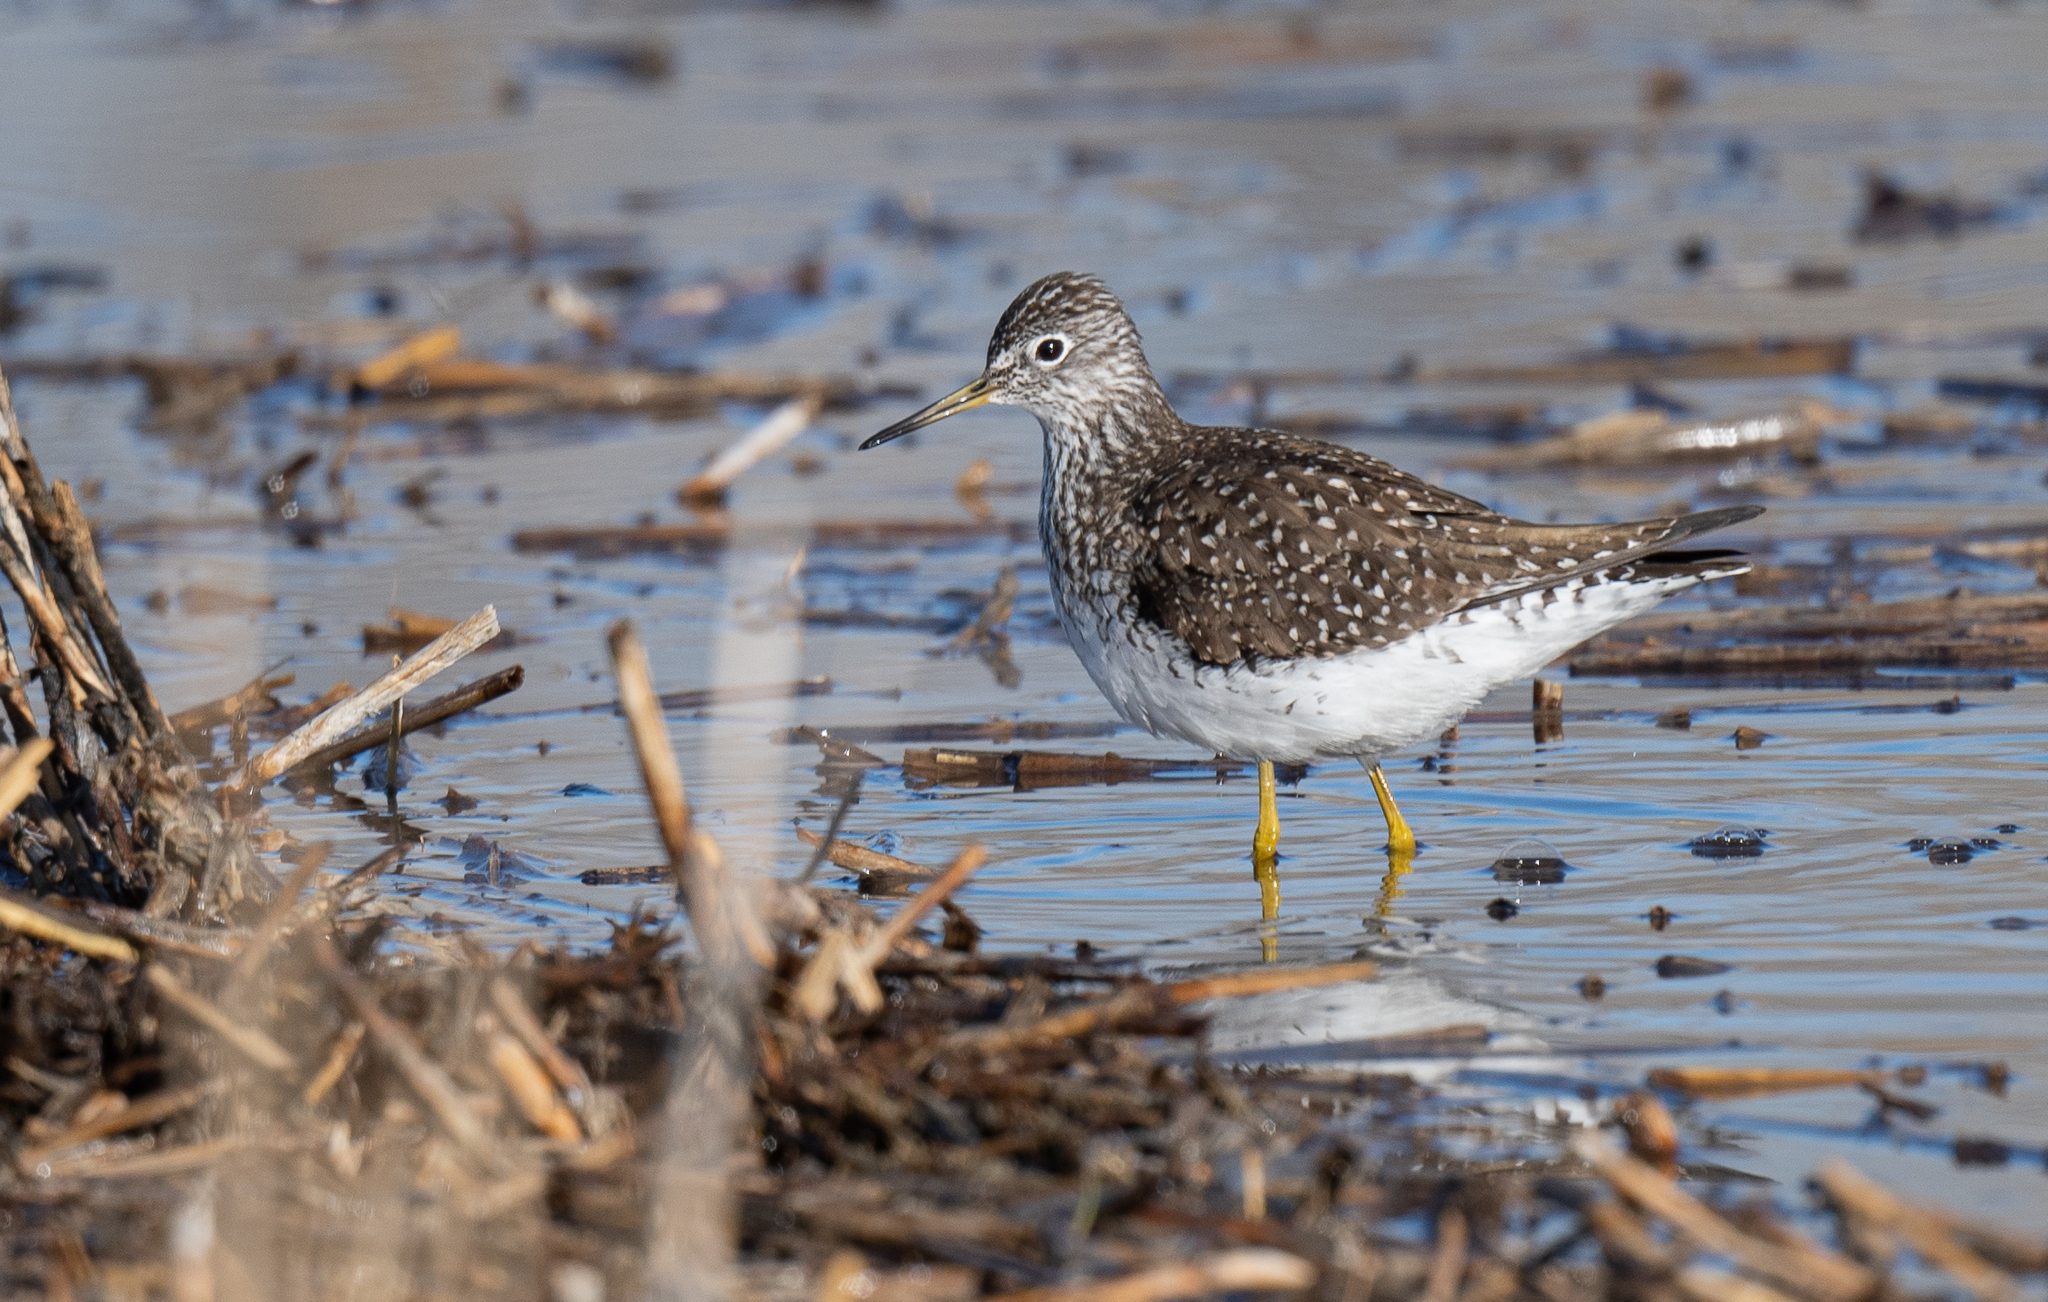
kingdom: Animalia
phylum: Chordata
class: Aves
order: Charadriiformes
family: Scolopacidae
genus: Tringa
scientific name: Tringa solitaria
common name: Solitary sandpiper
